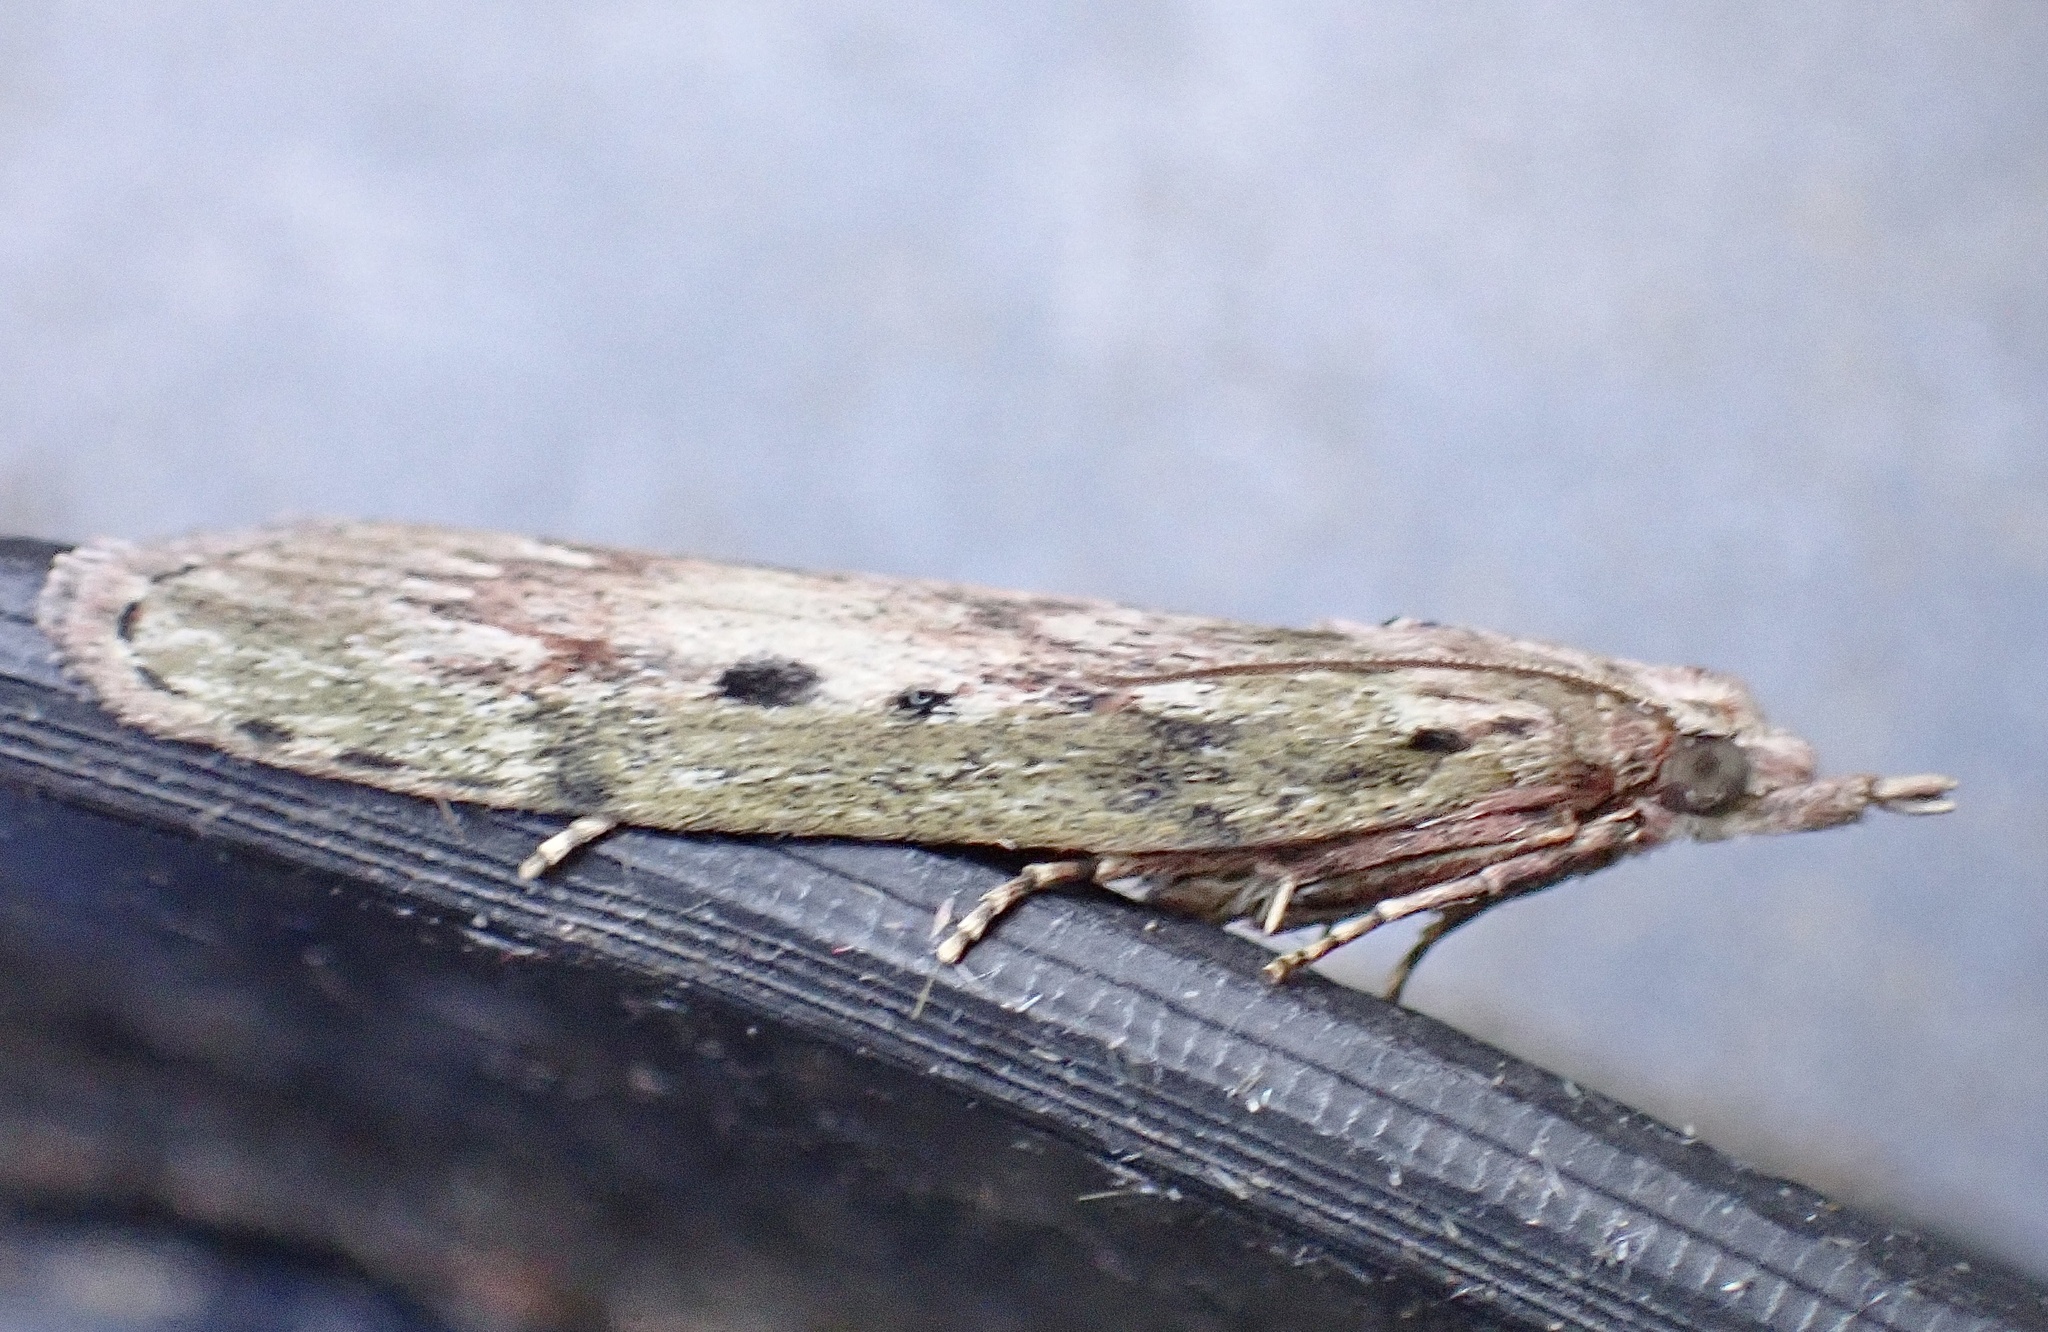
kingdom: Animalia
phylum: Arthropoda
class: Insecta
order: Lepidoptera
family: Pyralidae
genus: Aphomia
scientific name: Aphomia sociella
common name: Bee moth
